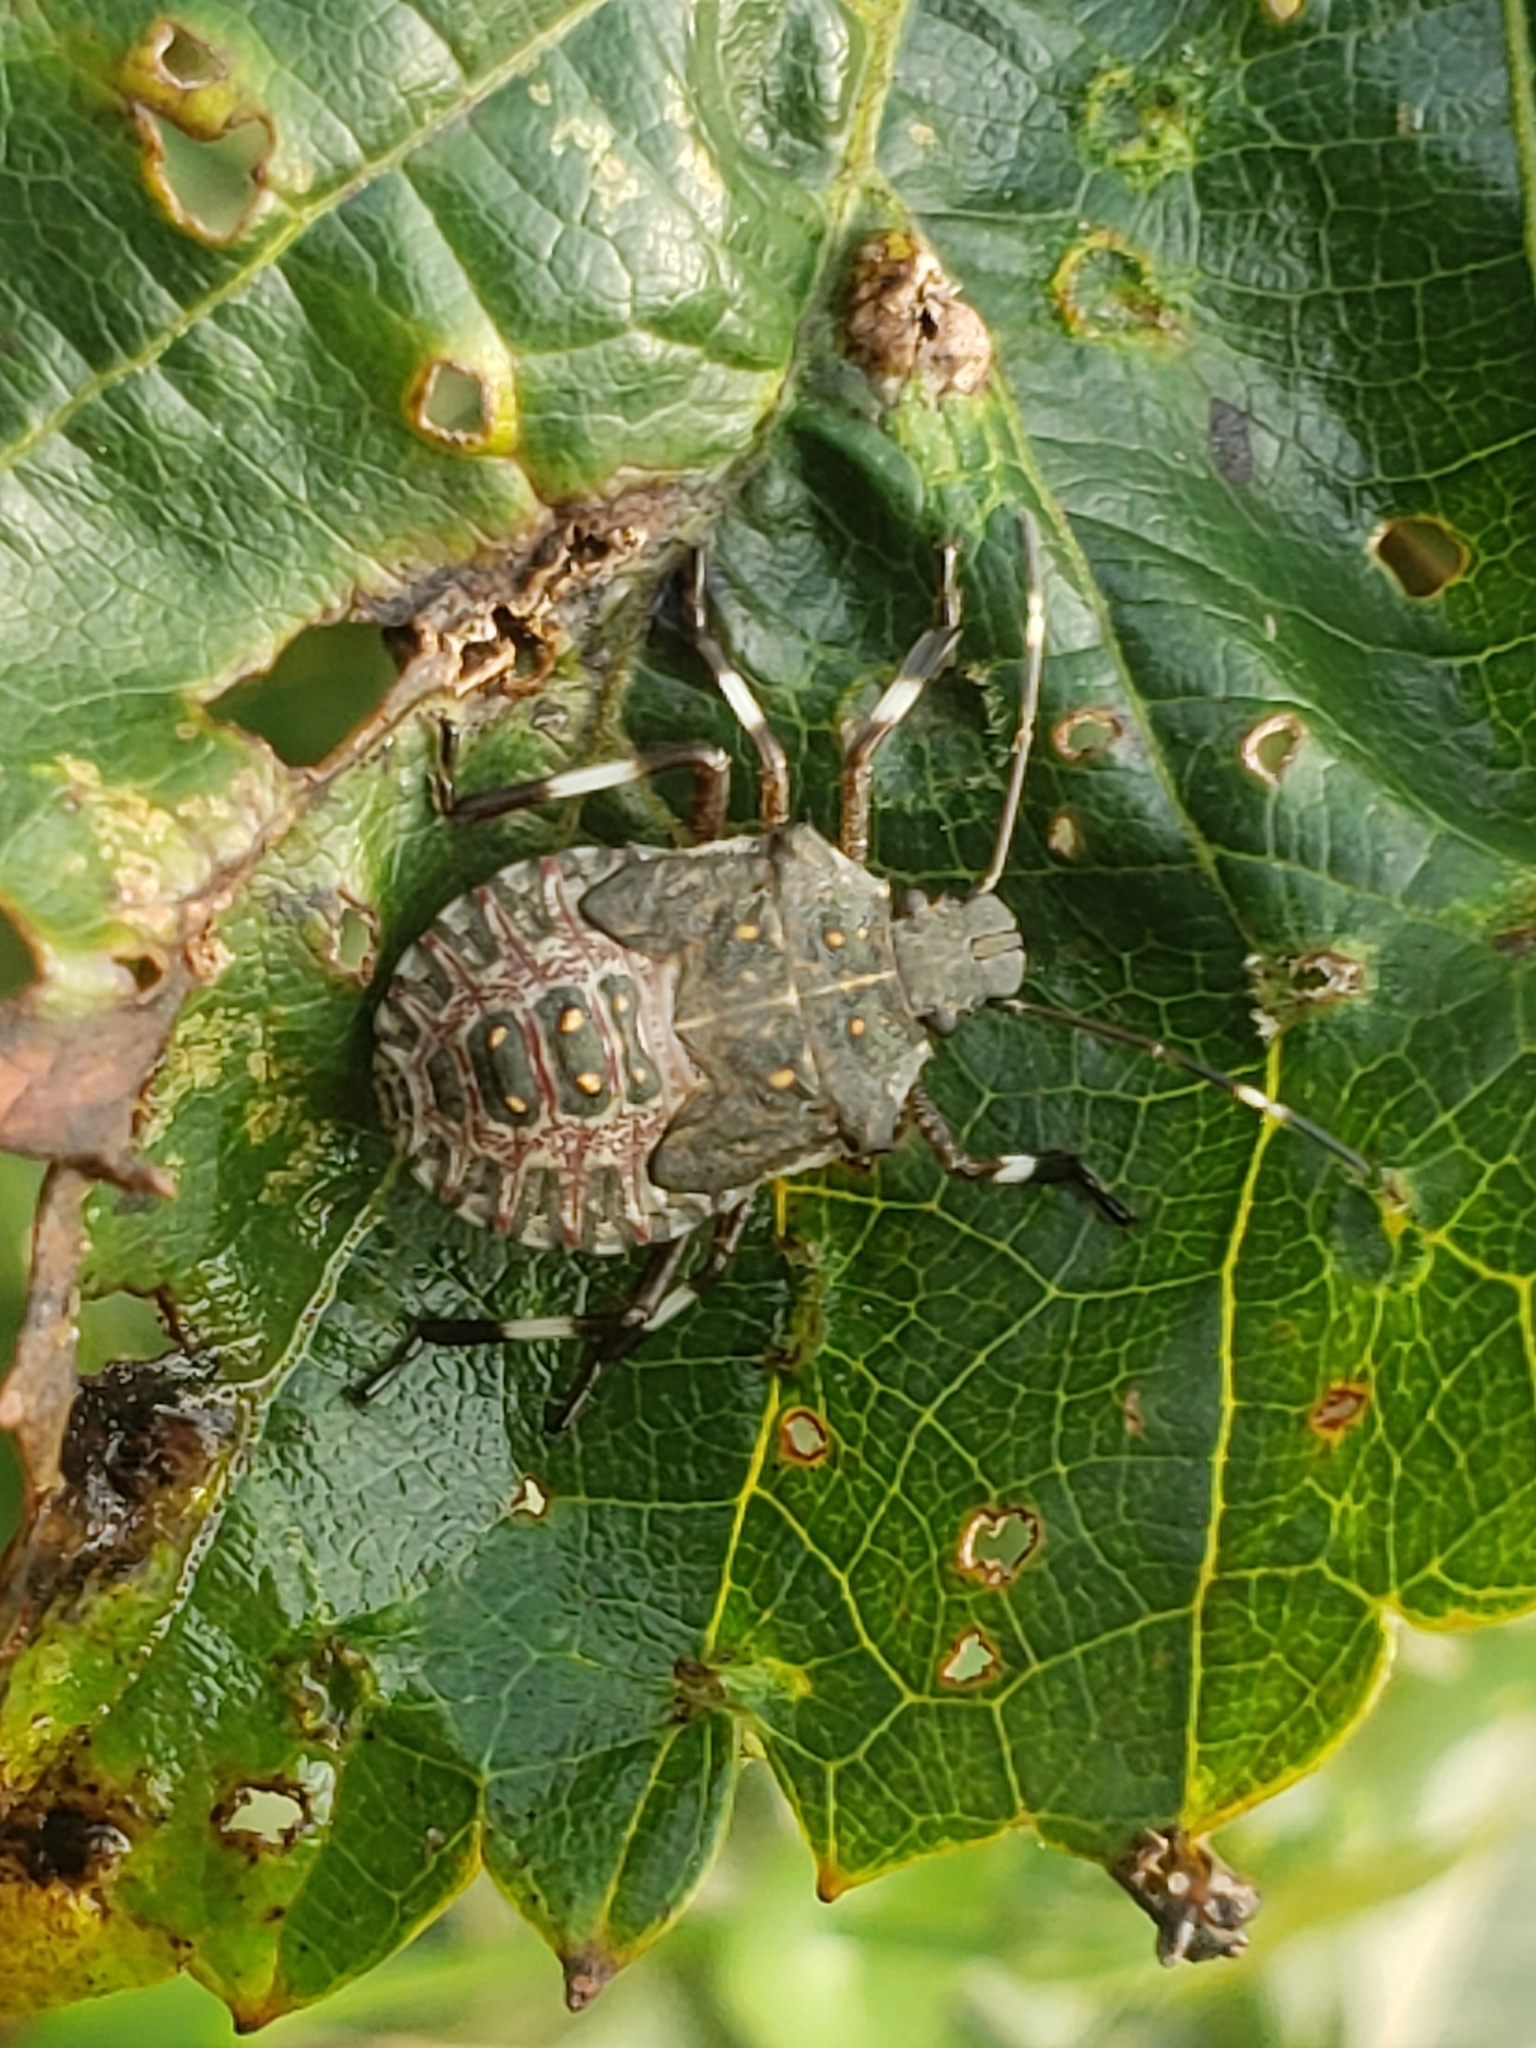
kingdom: Animalia
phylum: Arthropoda
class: Insecta
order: Hemiptera
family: Pentatomidae
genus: Halyomorpha
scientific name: Halyomorpha halys
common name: Brown marmorated stink bug
